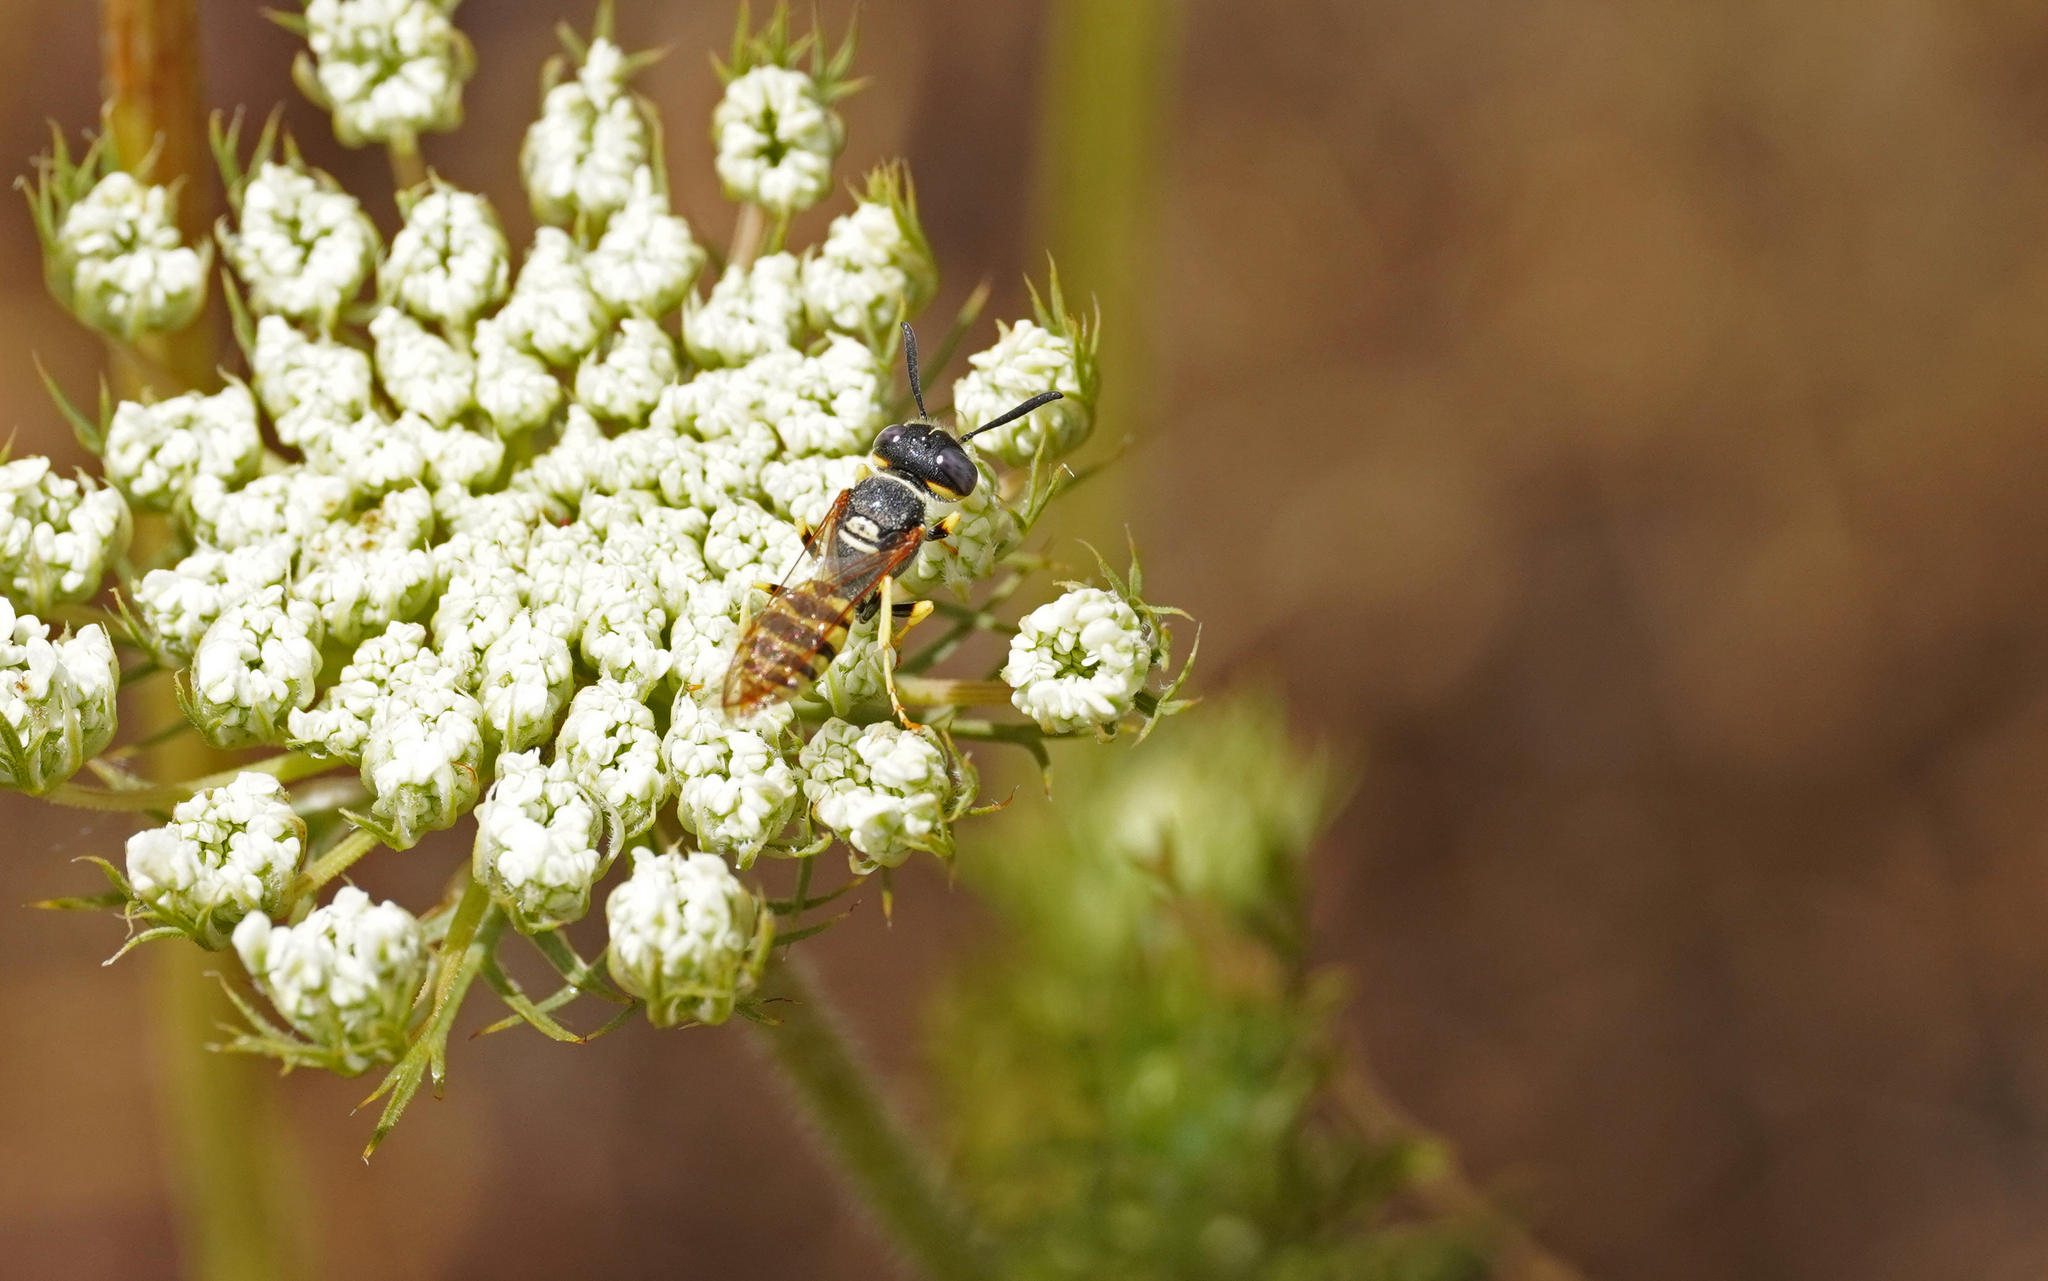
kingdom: Animalia
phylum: Arthropoda
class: Insecta
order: Hymenoptera
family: Crabronidae
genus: Philanthus
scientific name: Philanthus triangulum
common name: Bee wolf
